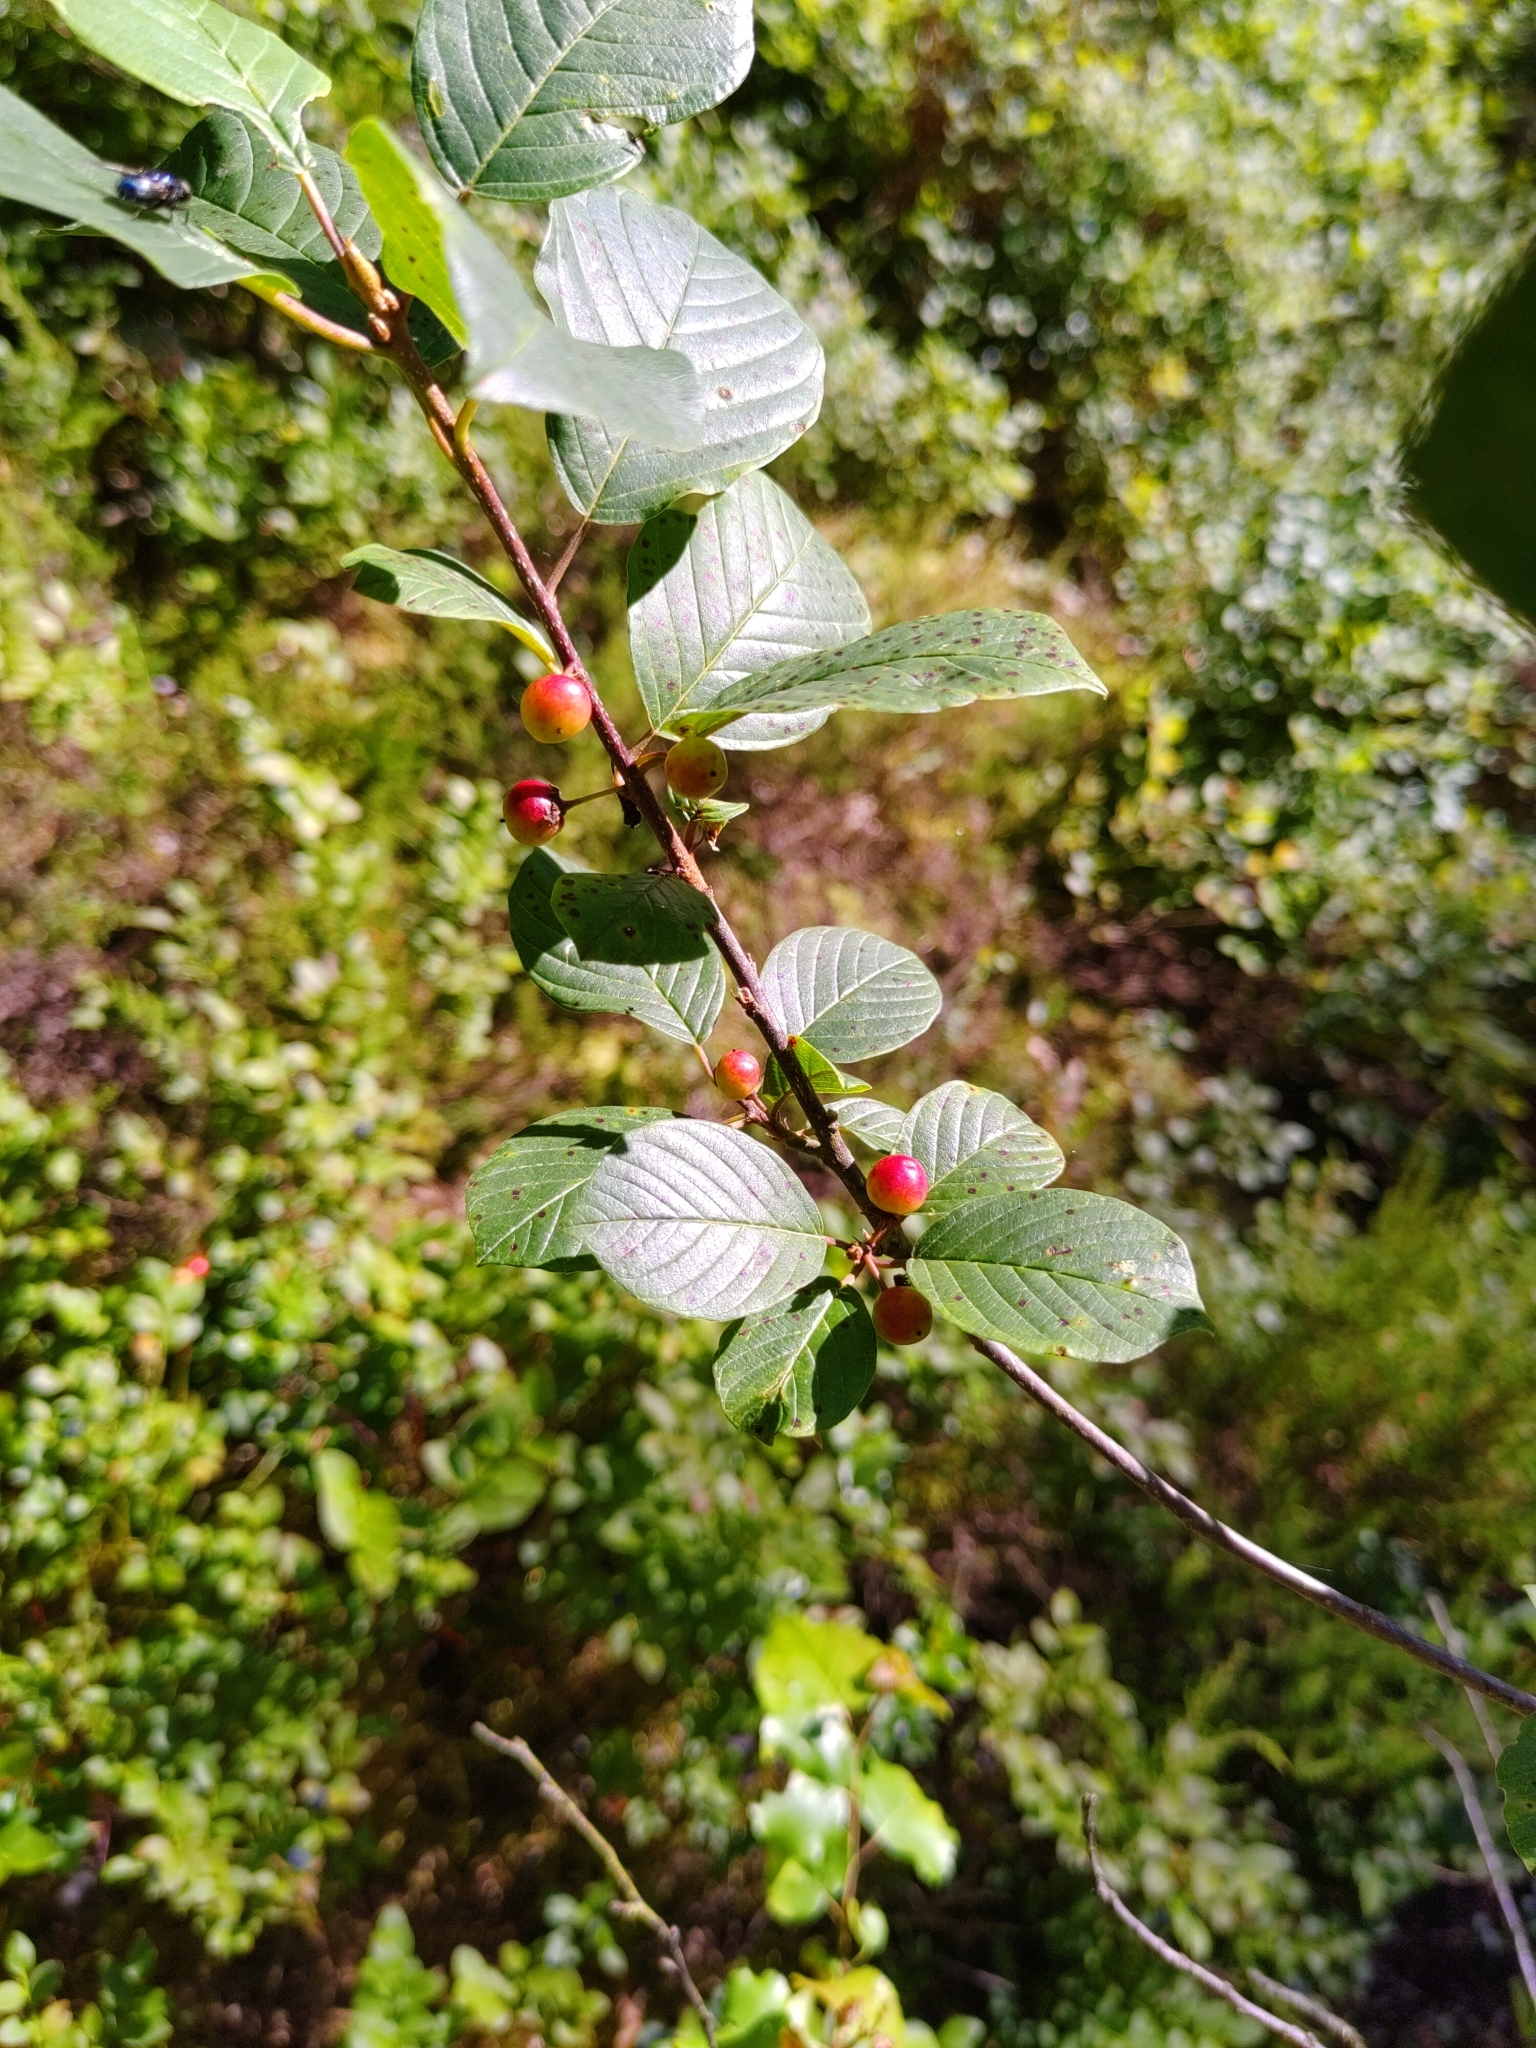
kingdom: Plantae
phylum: Tracheophyta
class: Magnoliopsida
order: Rosales
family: Rhamnaceae
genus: Frangula
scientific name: Frangula alnus
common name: Alder buckthorn
